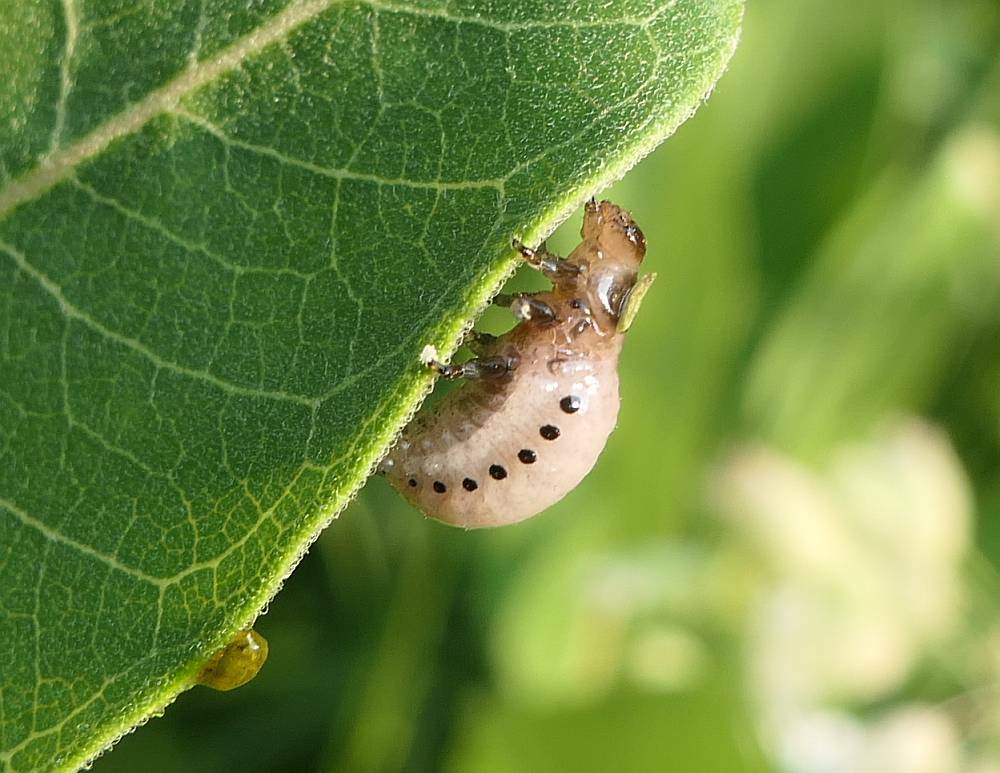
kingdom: Animalia
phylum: Arthropoda
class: Insecta
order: Coleoptera
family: Chrysomelidae
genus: Labidomera
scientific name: Labidomera clivicollis
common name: Swamp milkweed leaf beetle
